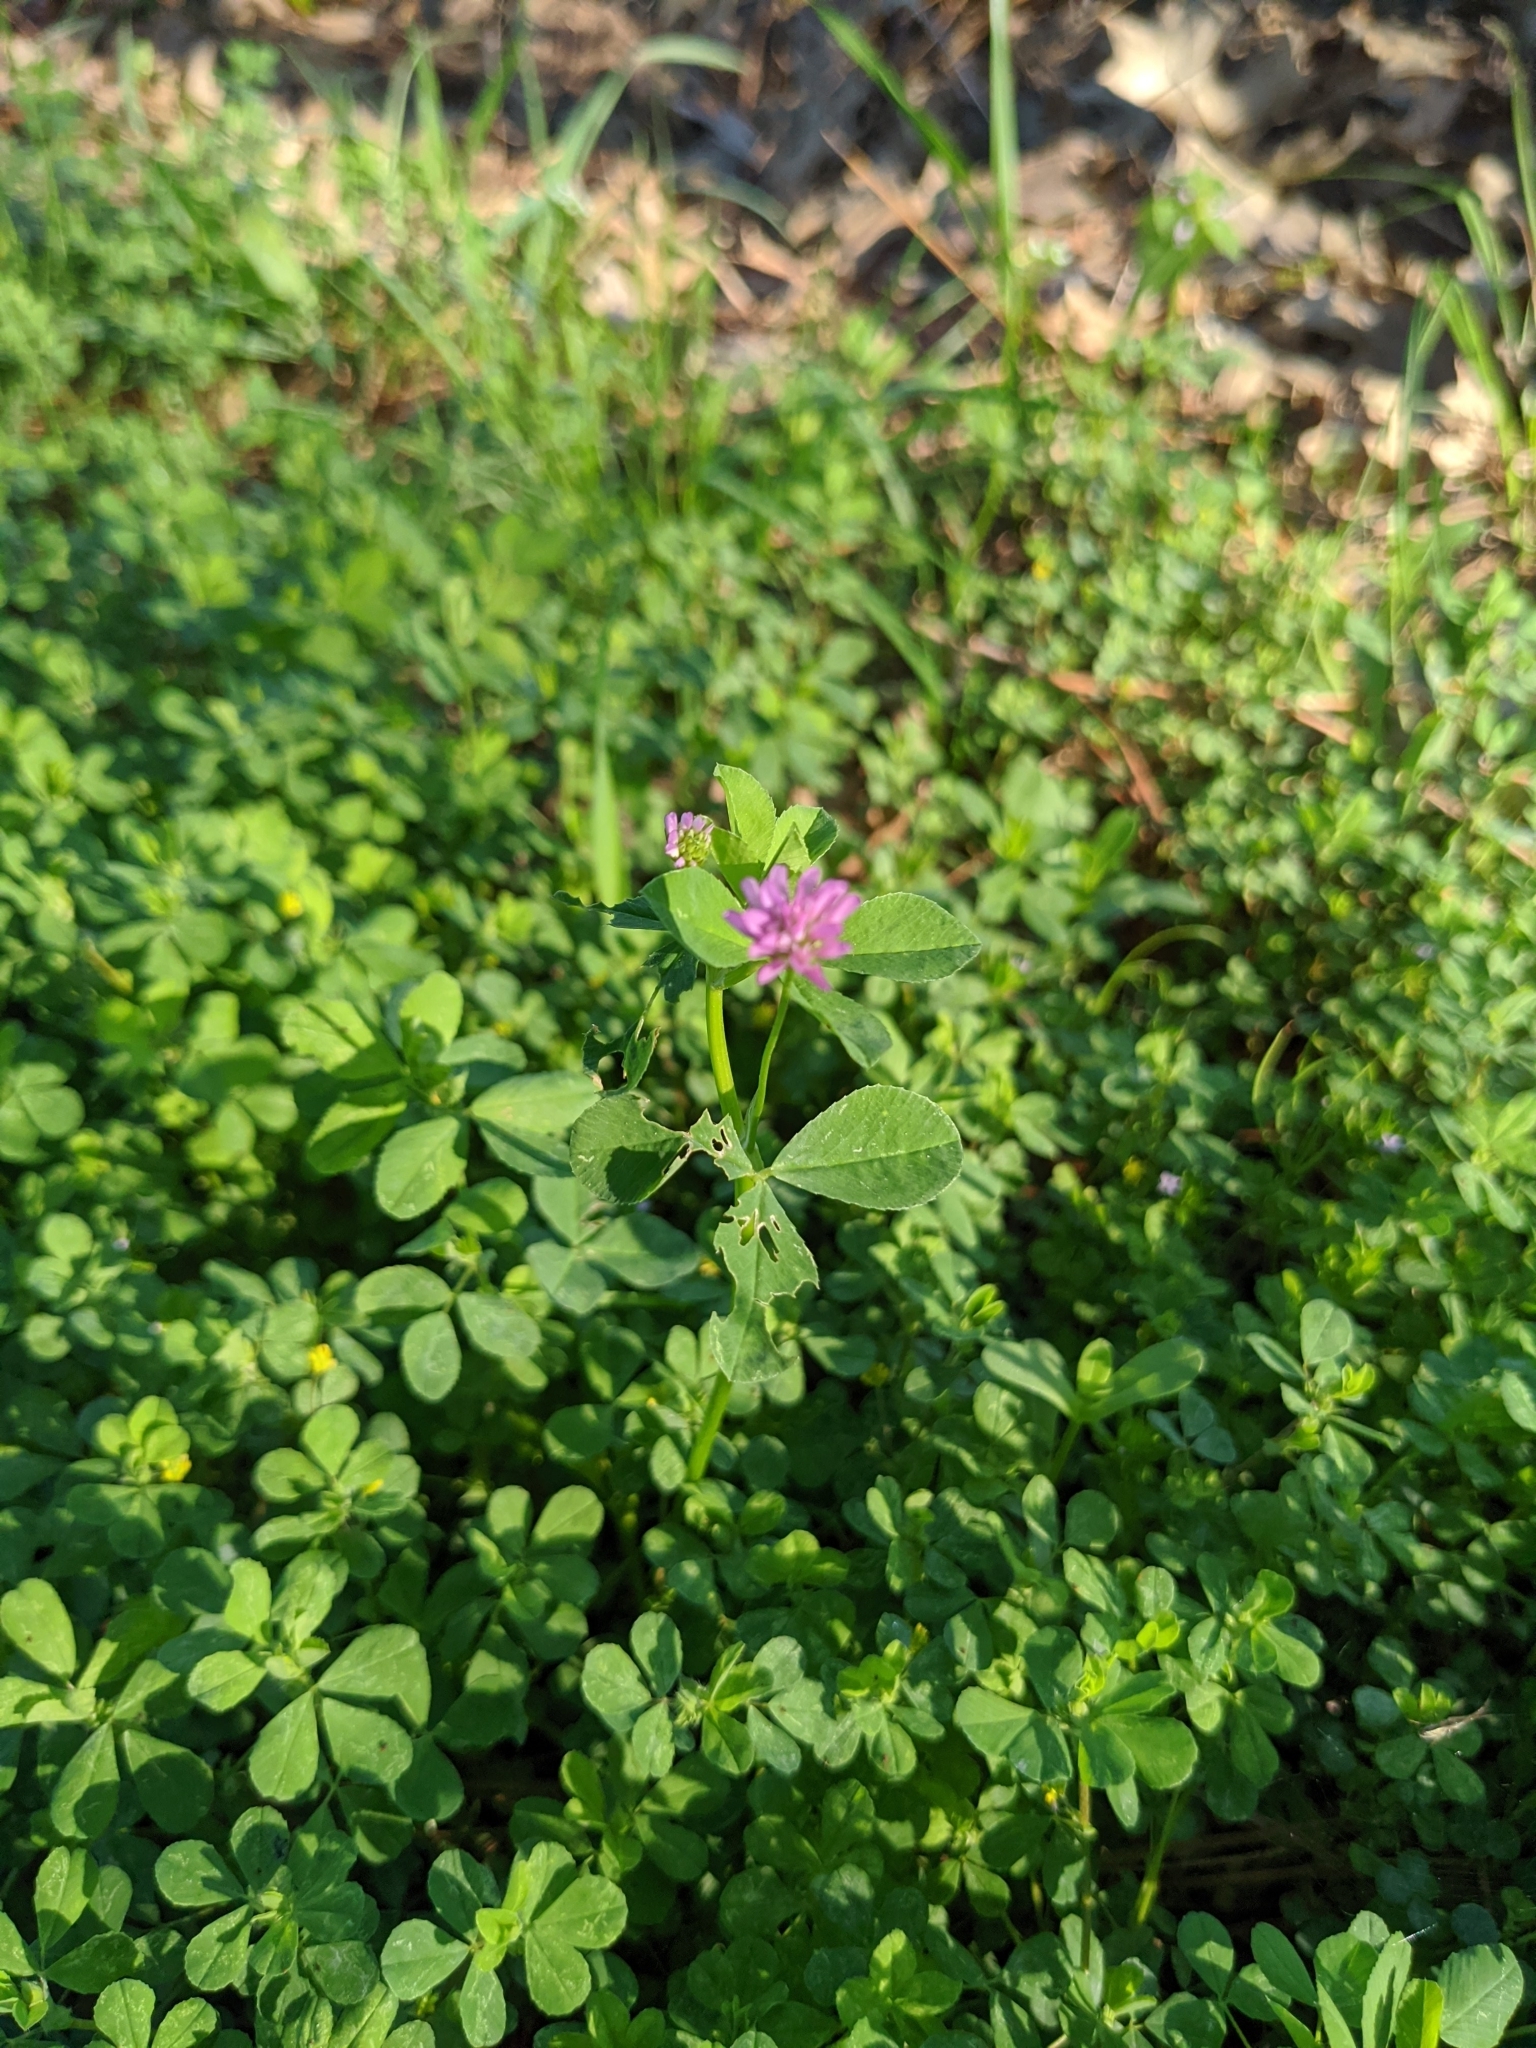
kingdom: Plantae
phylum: Tracheophyta
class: Magnoliopsida
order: Fabales
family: Fabaceae
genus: Trifolium
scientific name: Trifolium resupinatum
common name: Reversed clover
